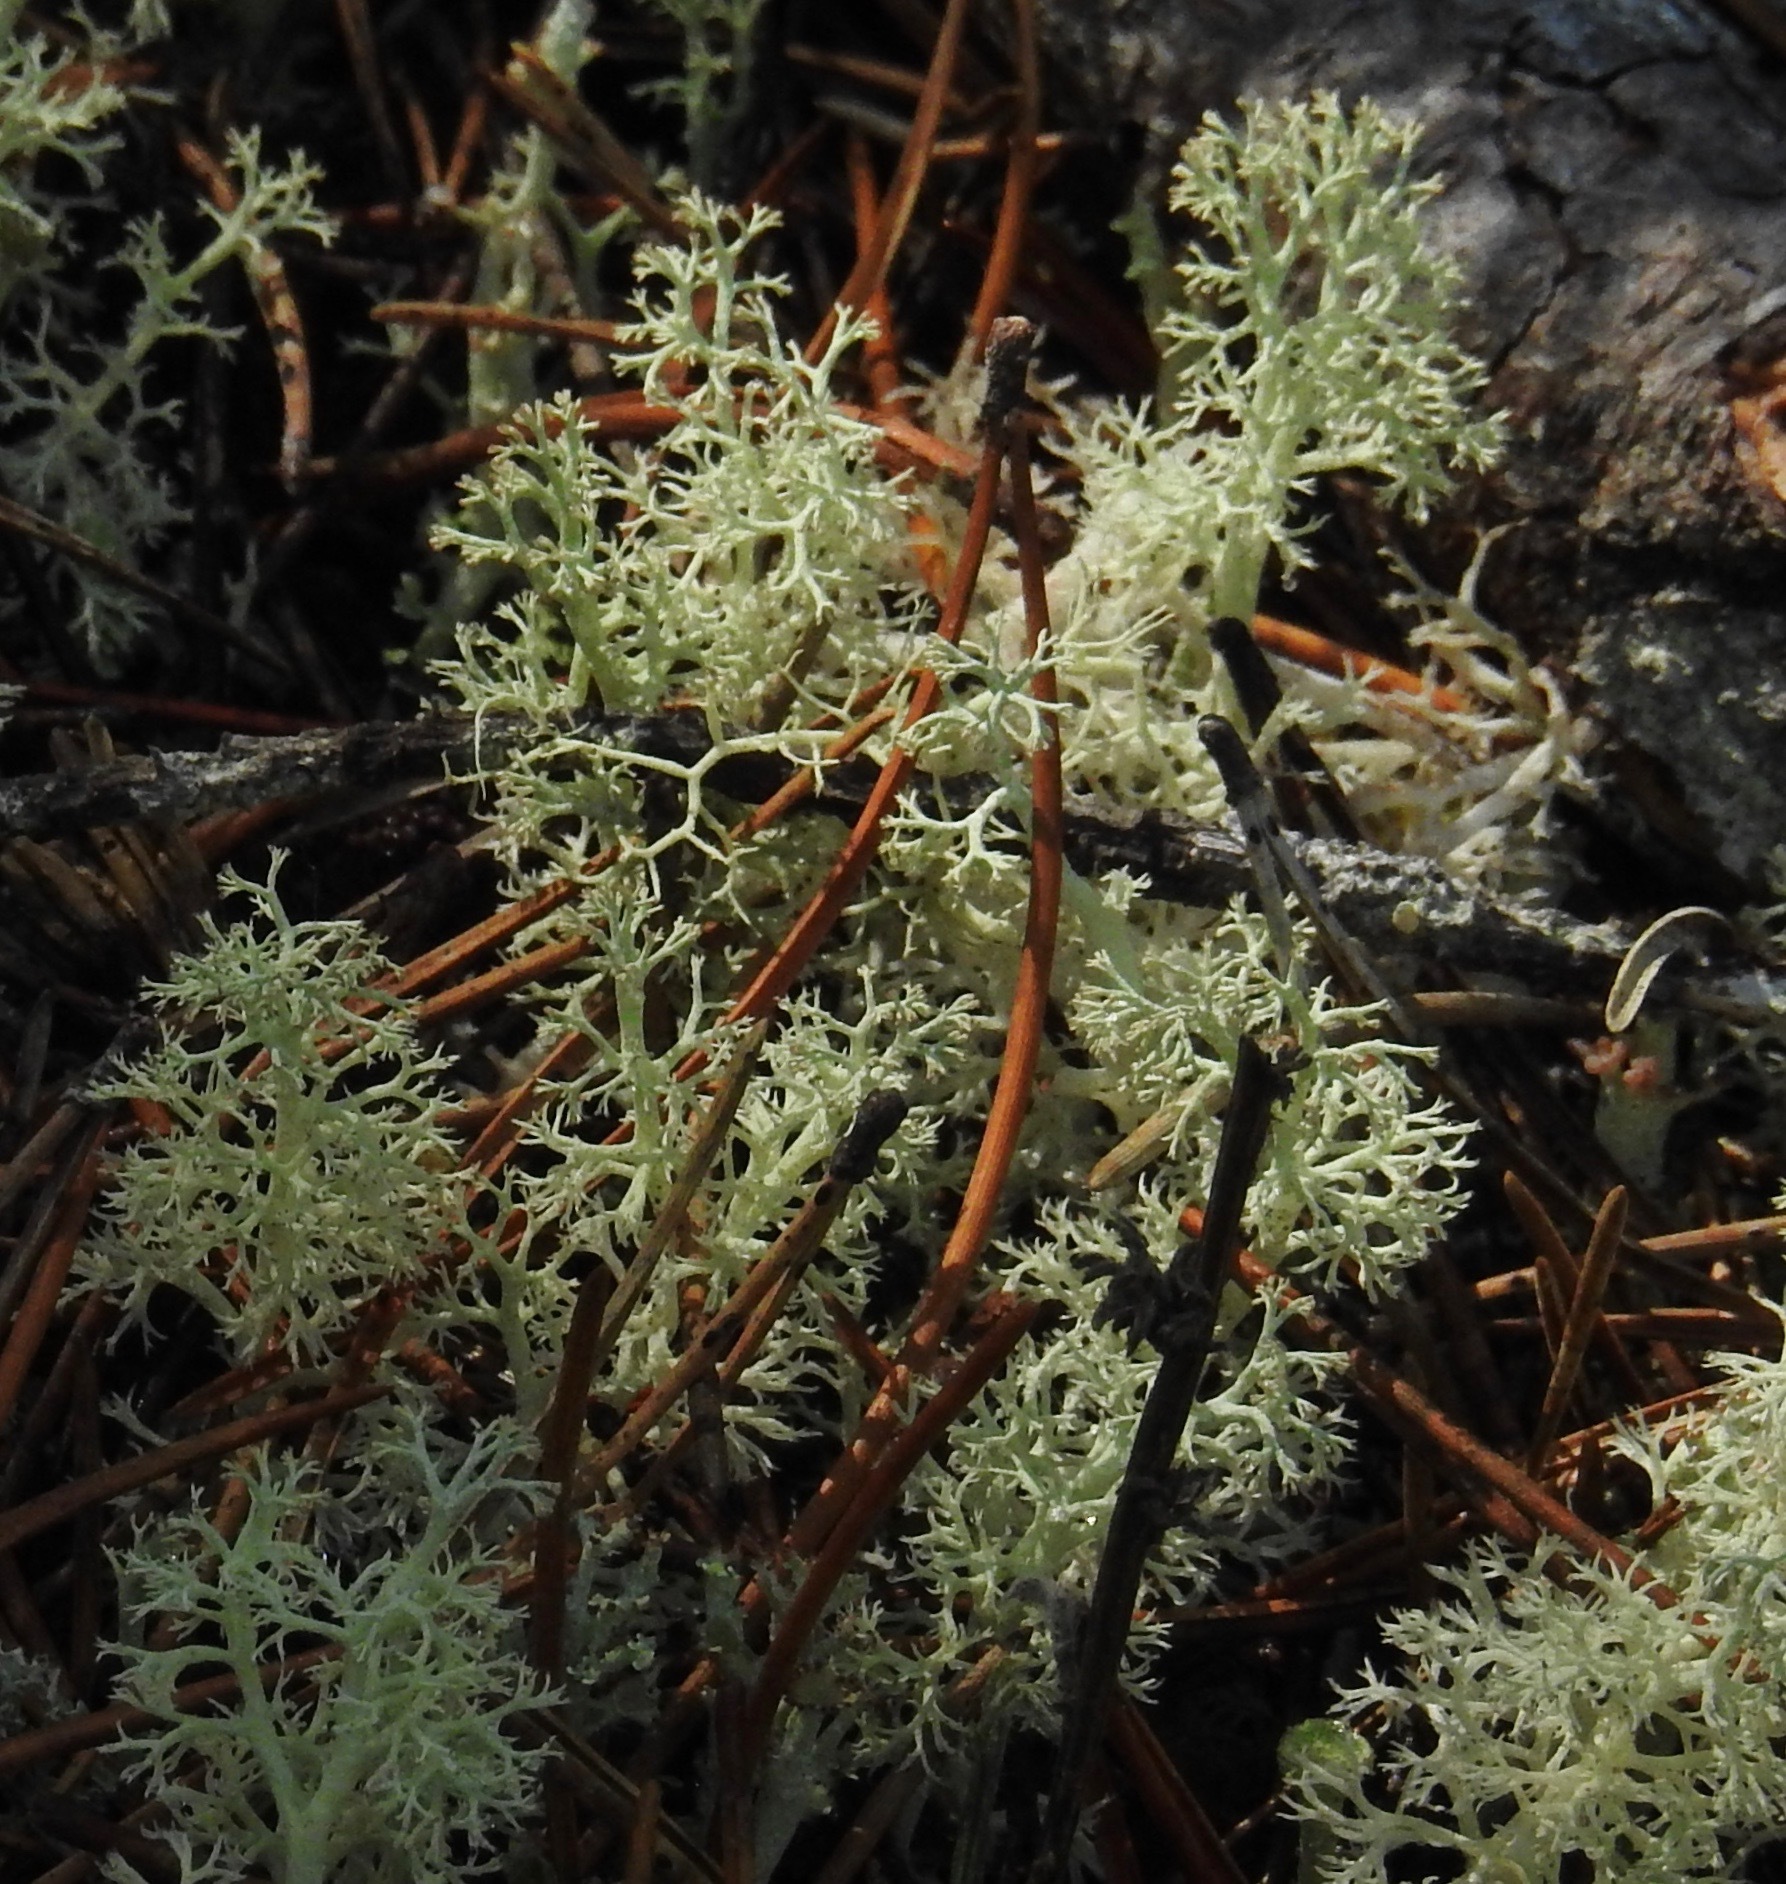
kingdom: Fungi
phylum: Ascomycota
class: Lecanoromycetes
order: Lecanorales
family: Cladoniaceae
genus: Cladonia
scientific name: Cladonia portentosa
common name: Reindeer lichen
